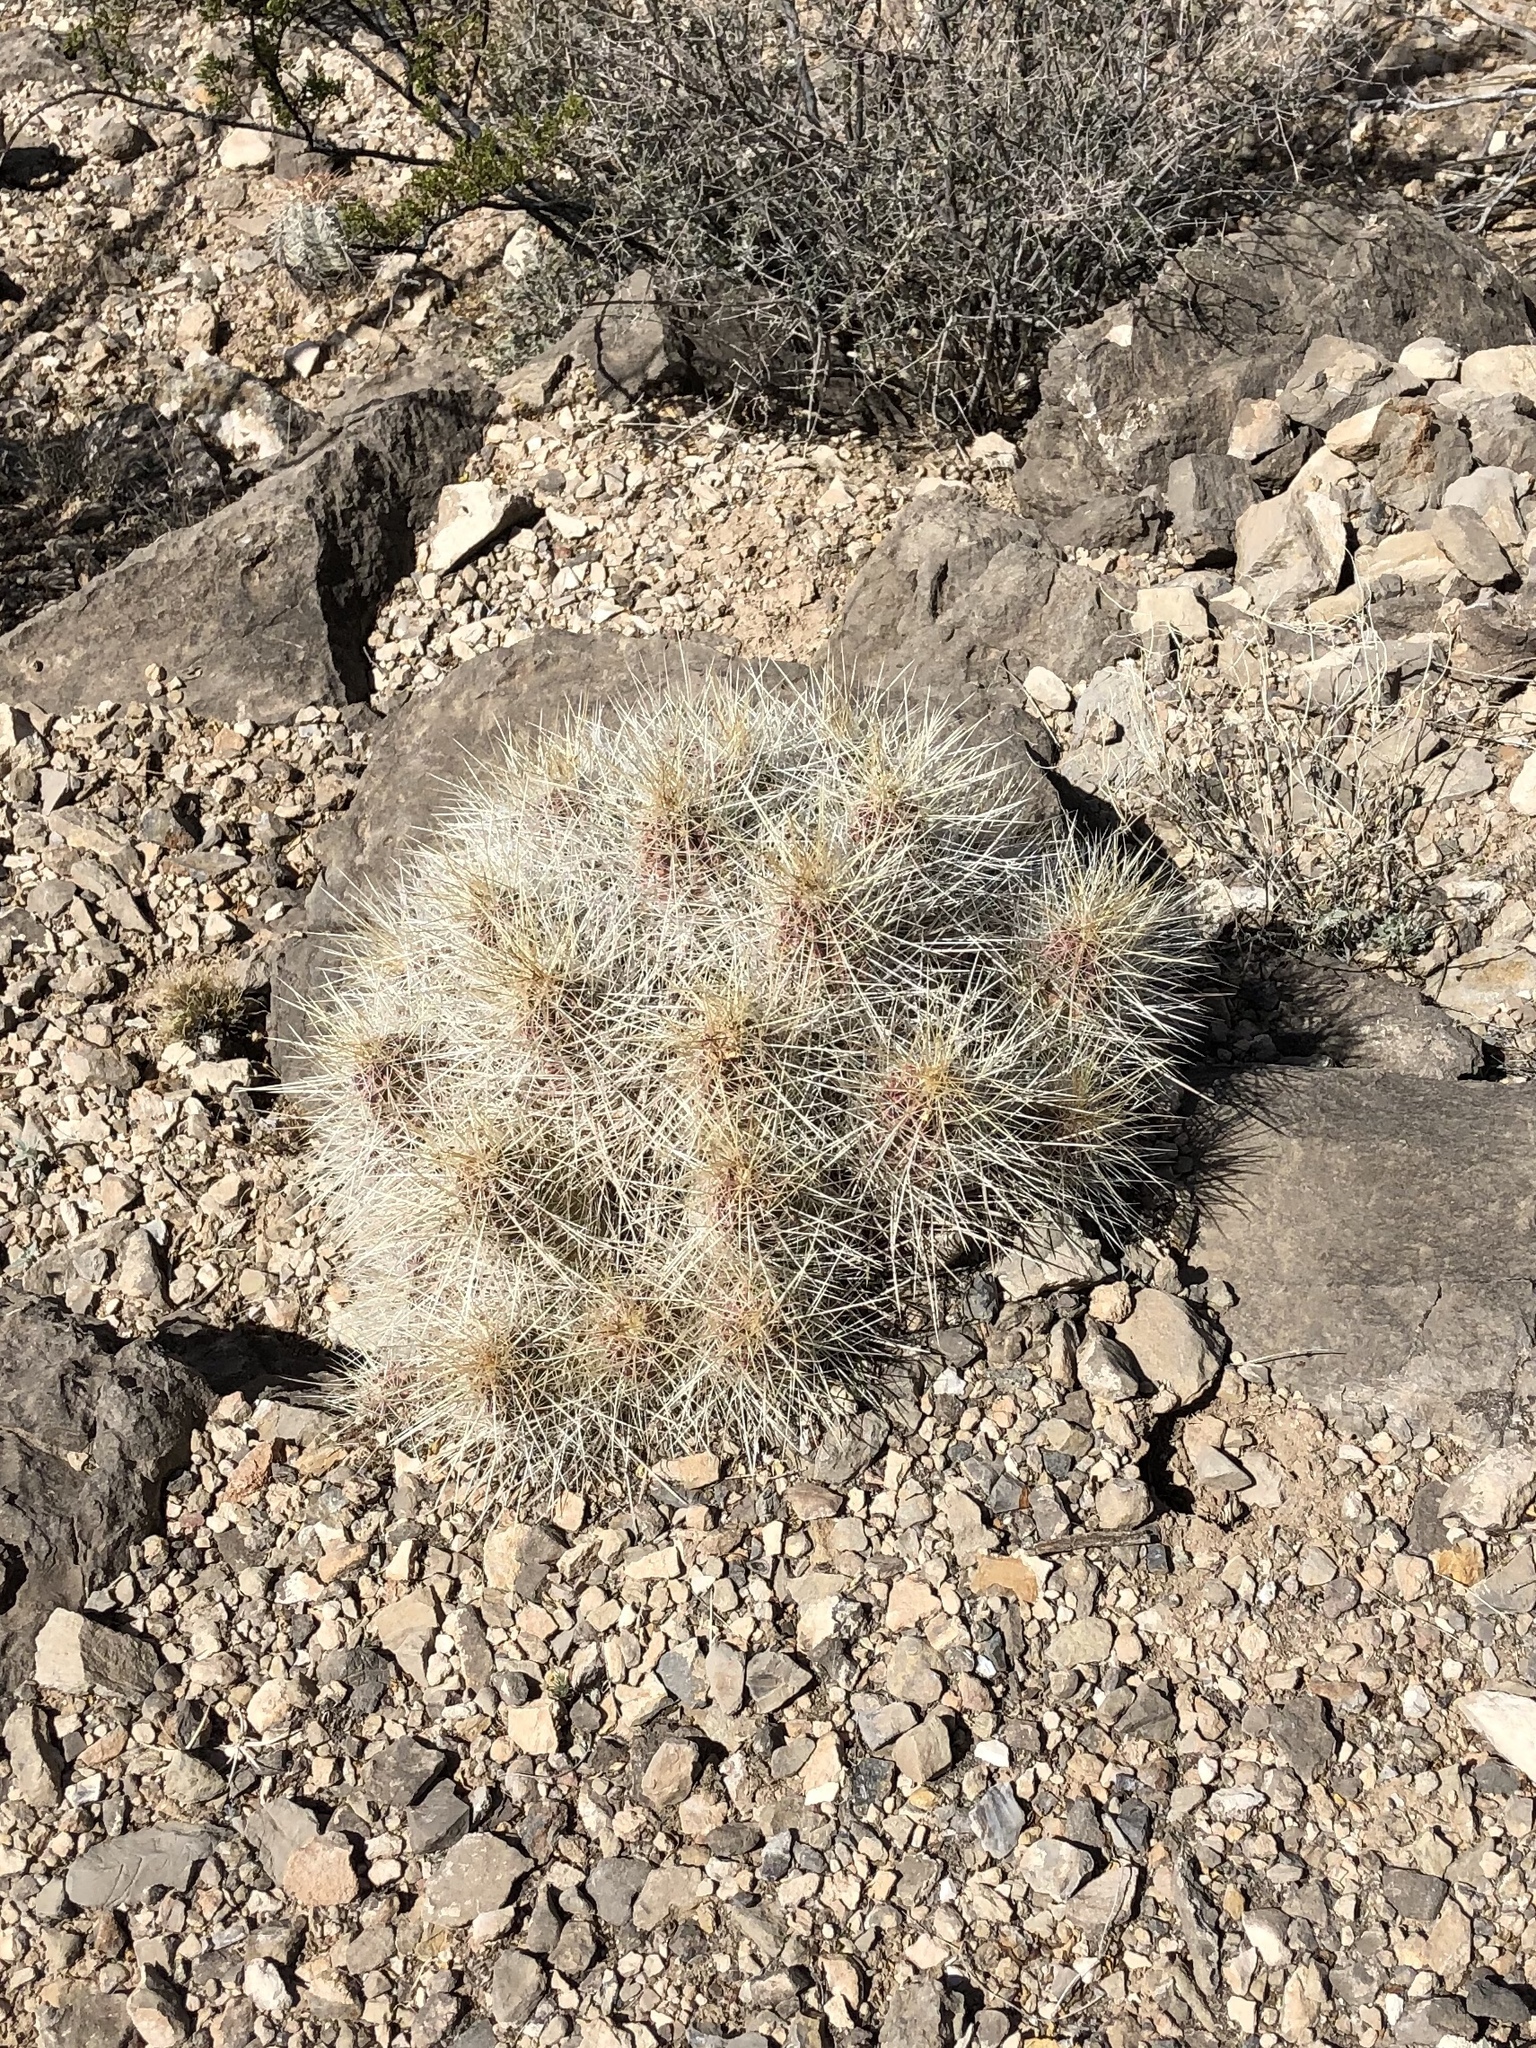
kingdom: Plantae
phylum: Tracheophyta
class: Magnoliopsida
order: Caryophyllales
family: Cactaceae
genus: Echinocereus
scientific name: Echinocereus stramineus
